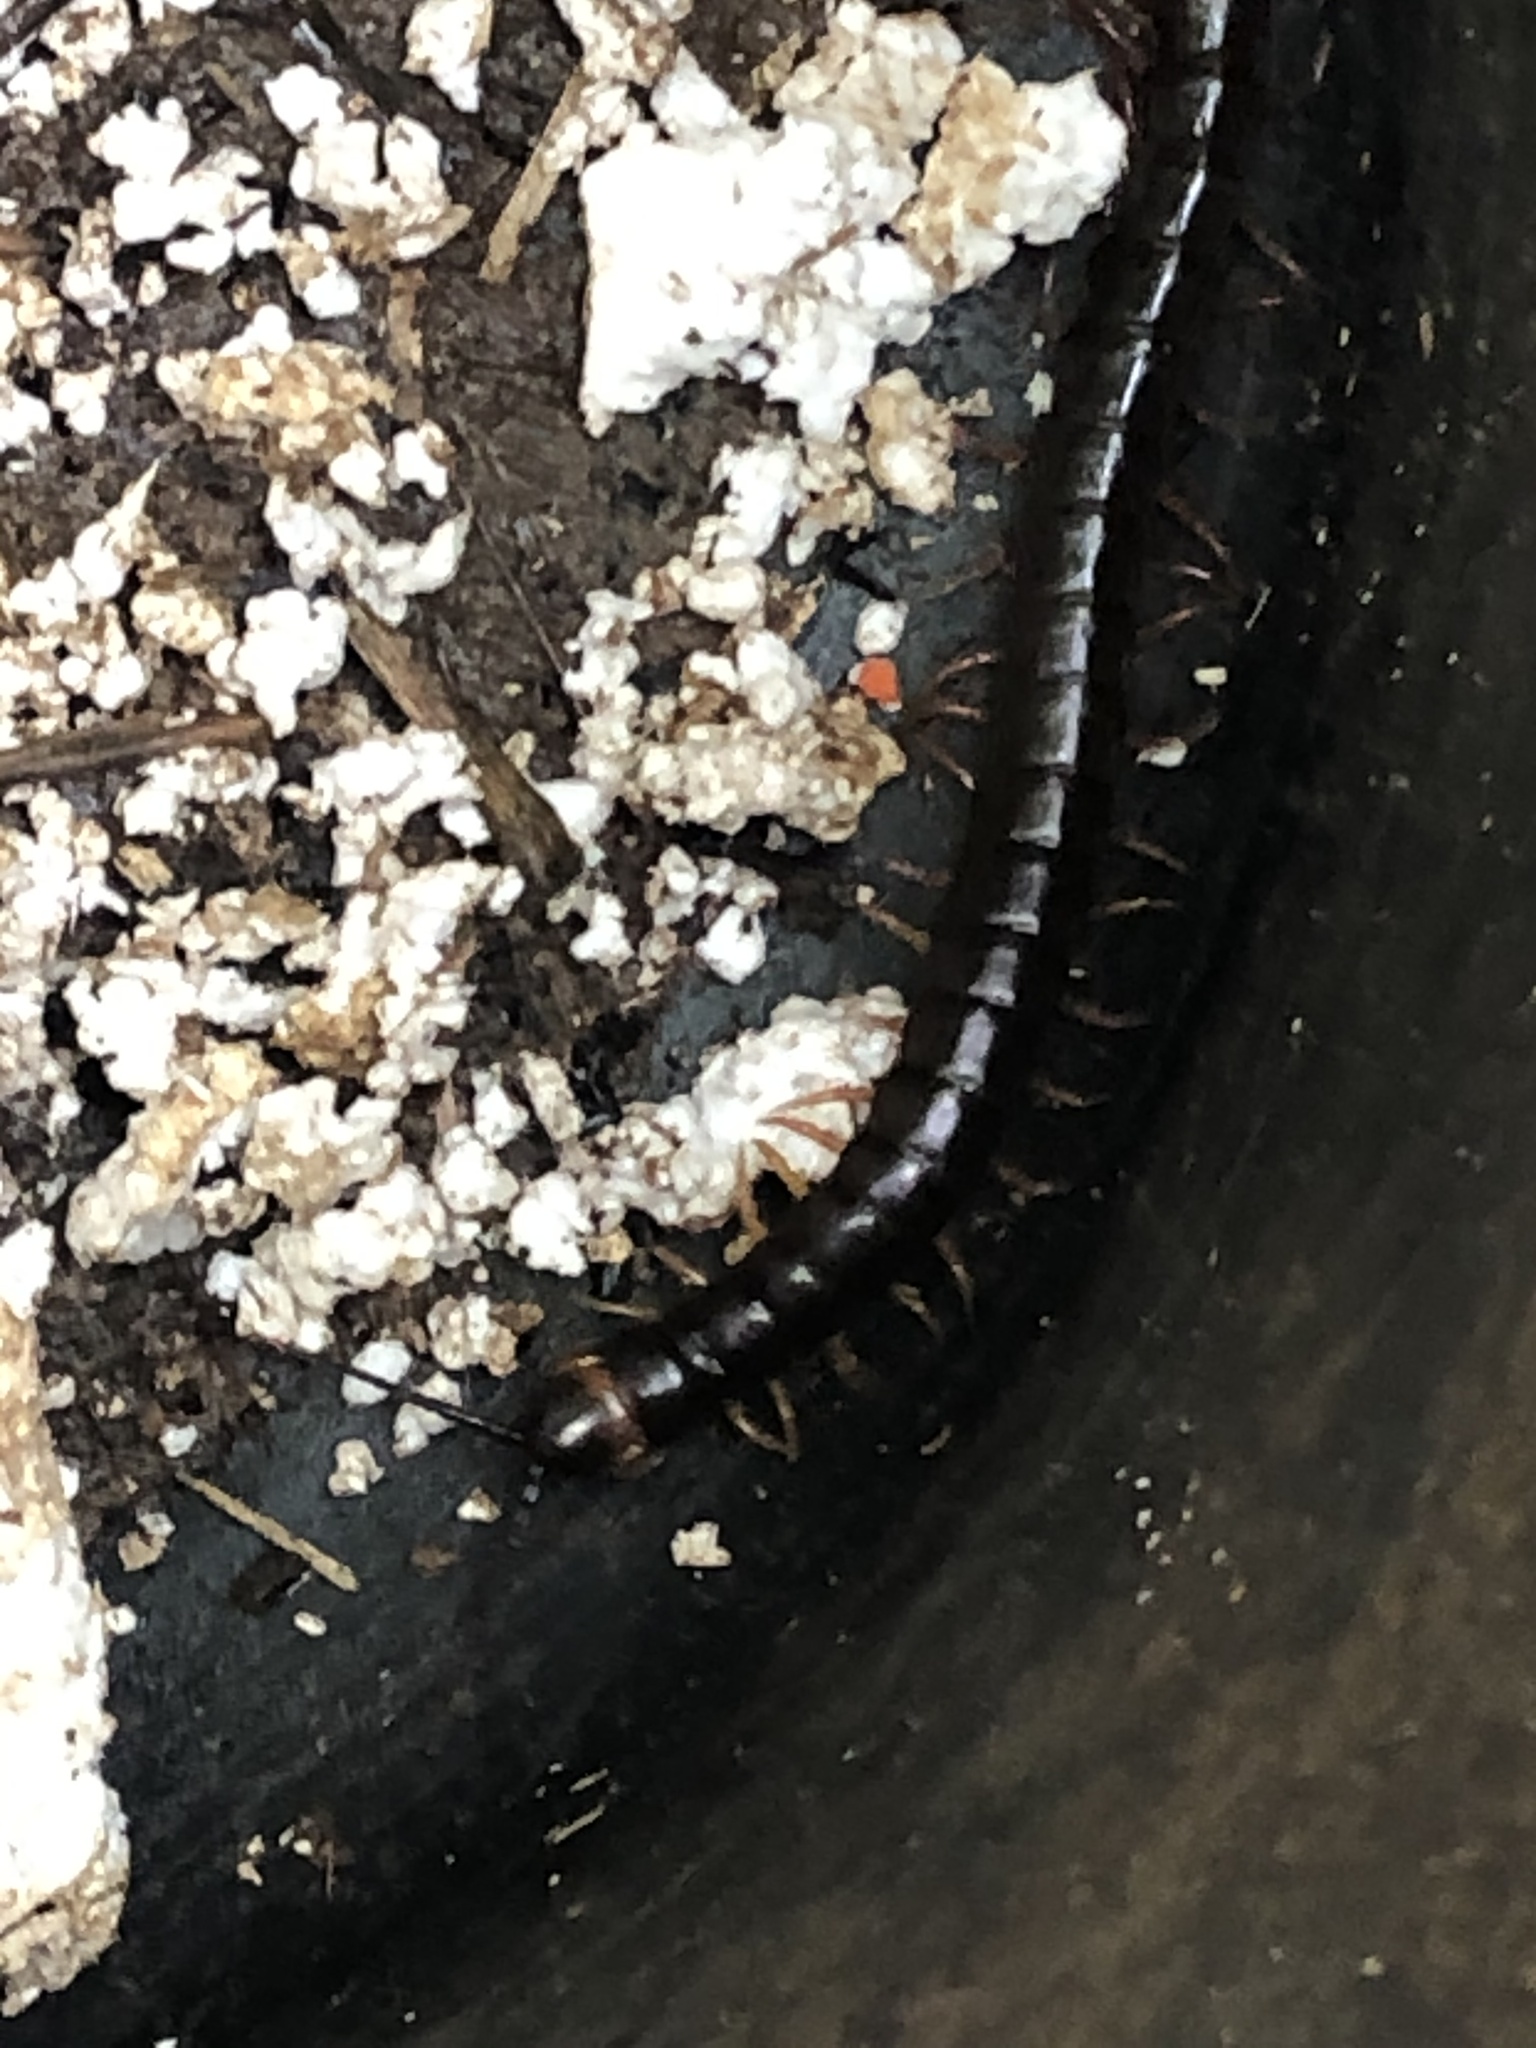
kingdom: Animalia
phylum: Arthropoda
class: Chilopoda
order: Scolopendromorpha
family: Scolopendridae
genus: Scolopendra
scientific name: Scolopendra hermosa
